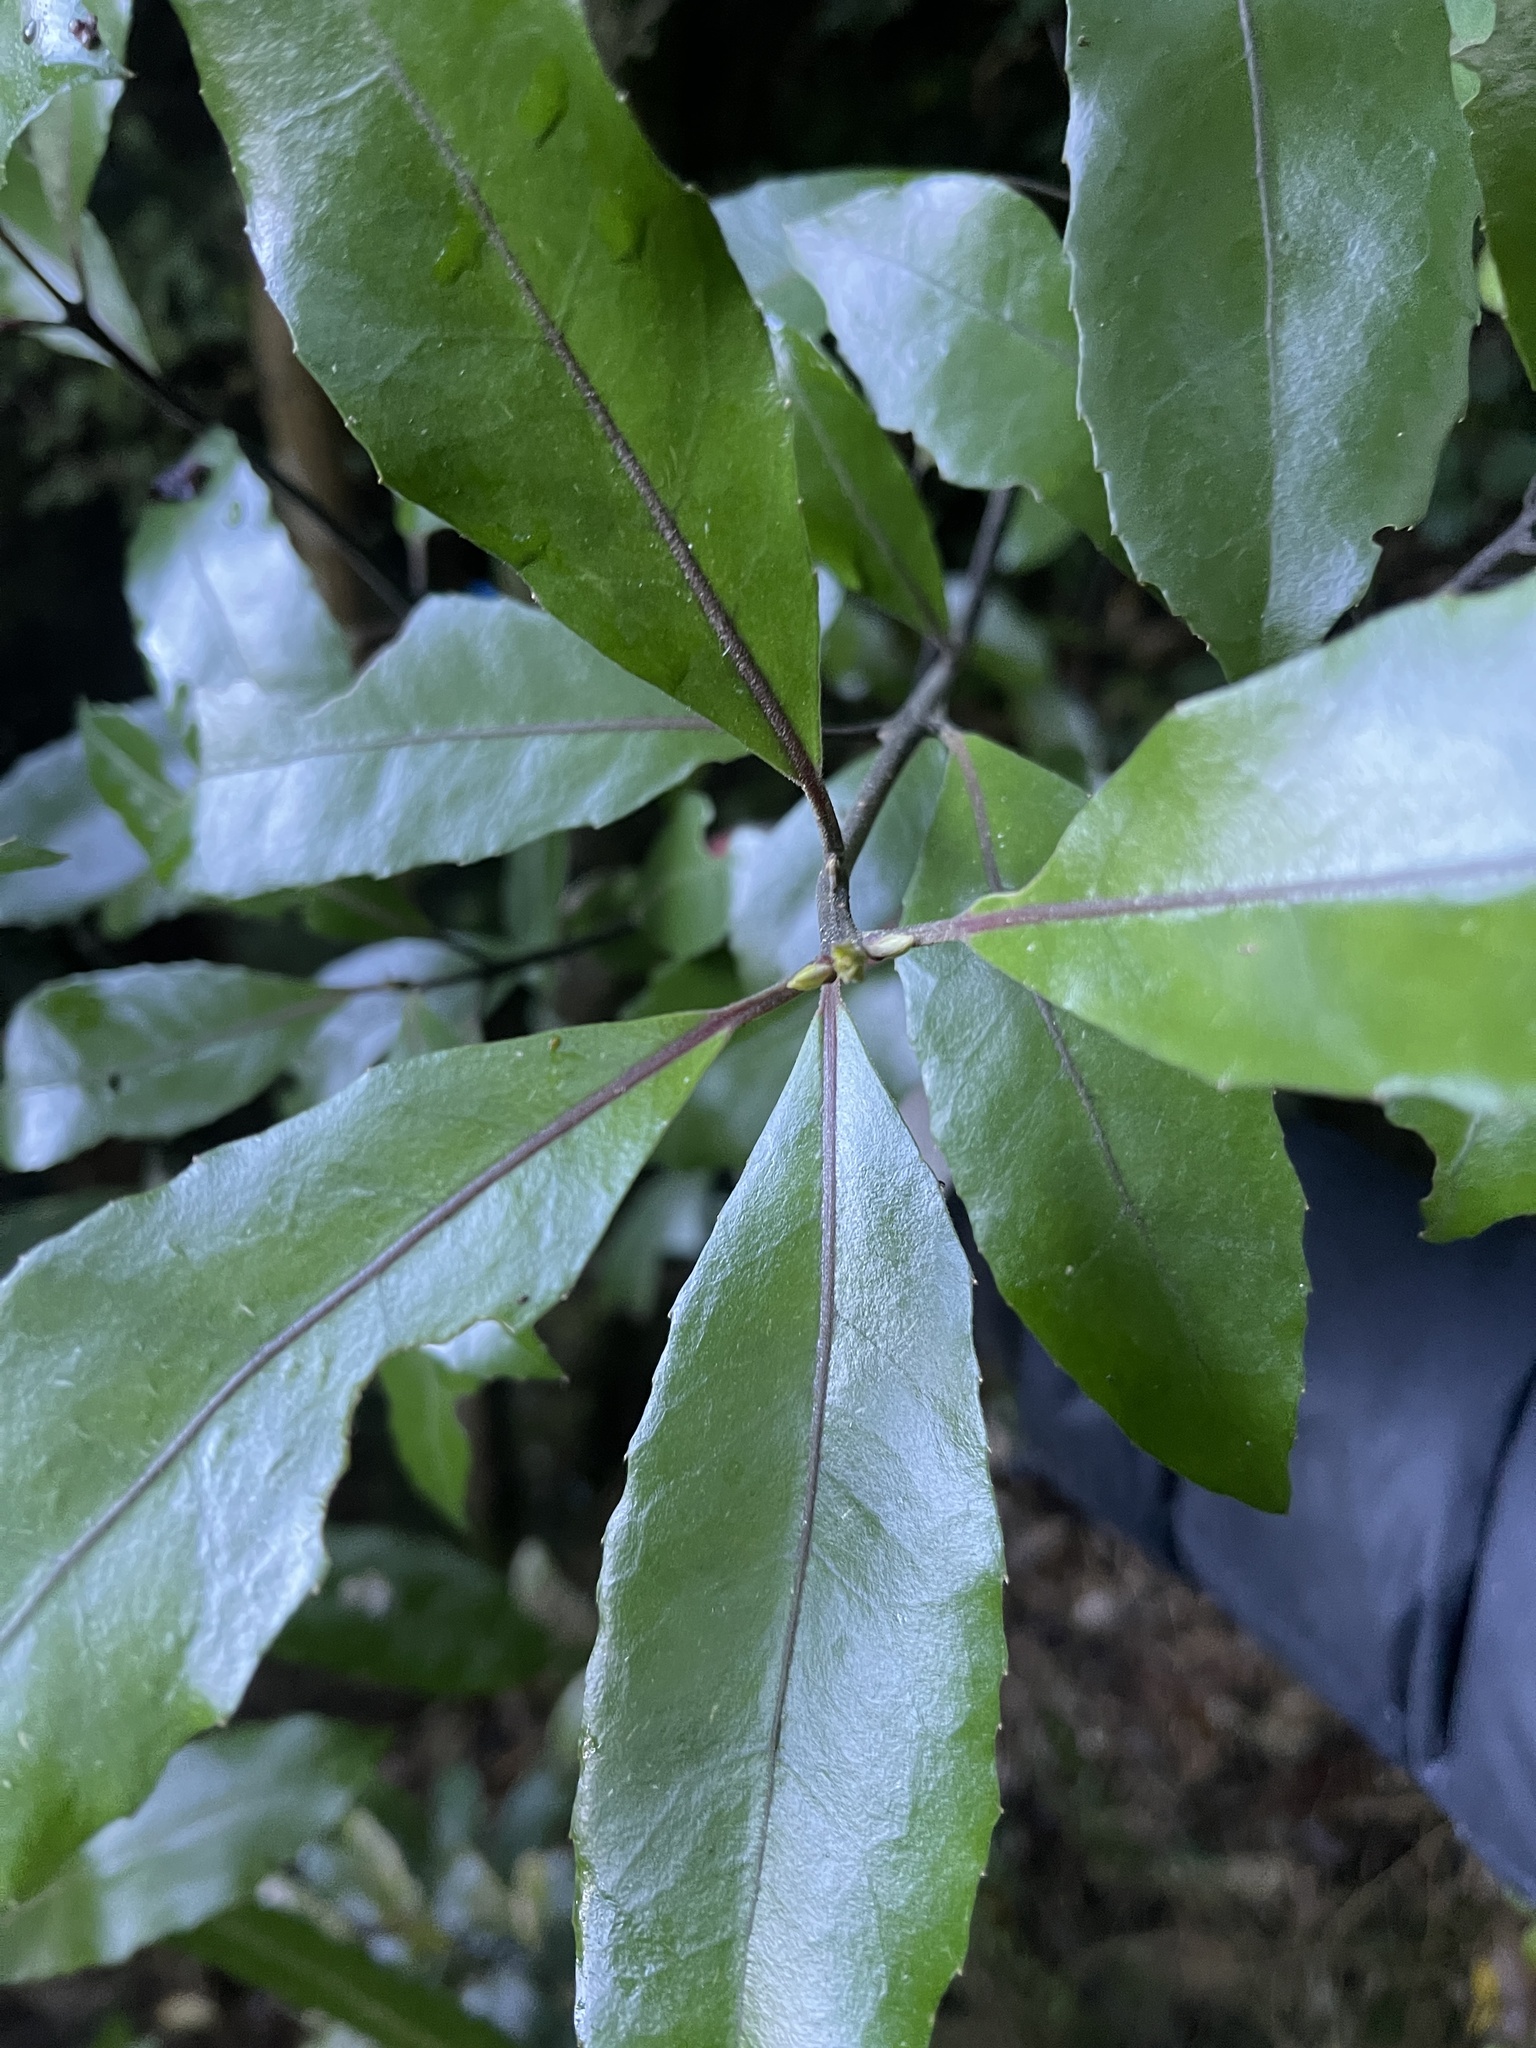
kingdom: Plantae
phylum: Tracheophyta
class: Magnoliopsida
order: Laurales
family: Monimiaceae
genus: Hedycarya
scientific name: Hedycarya arborea
